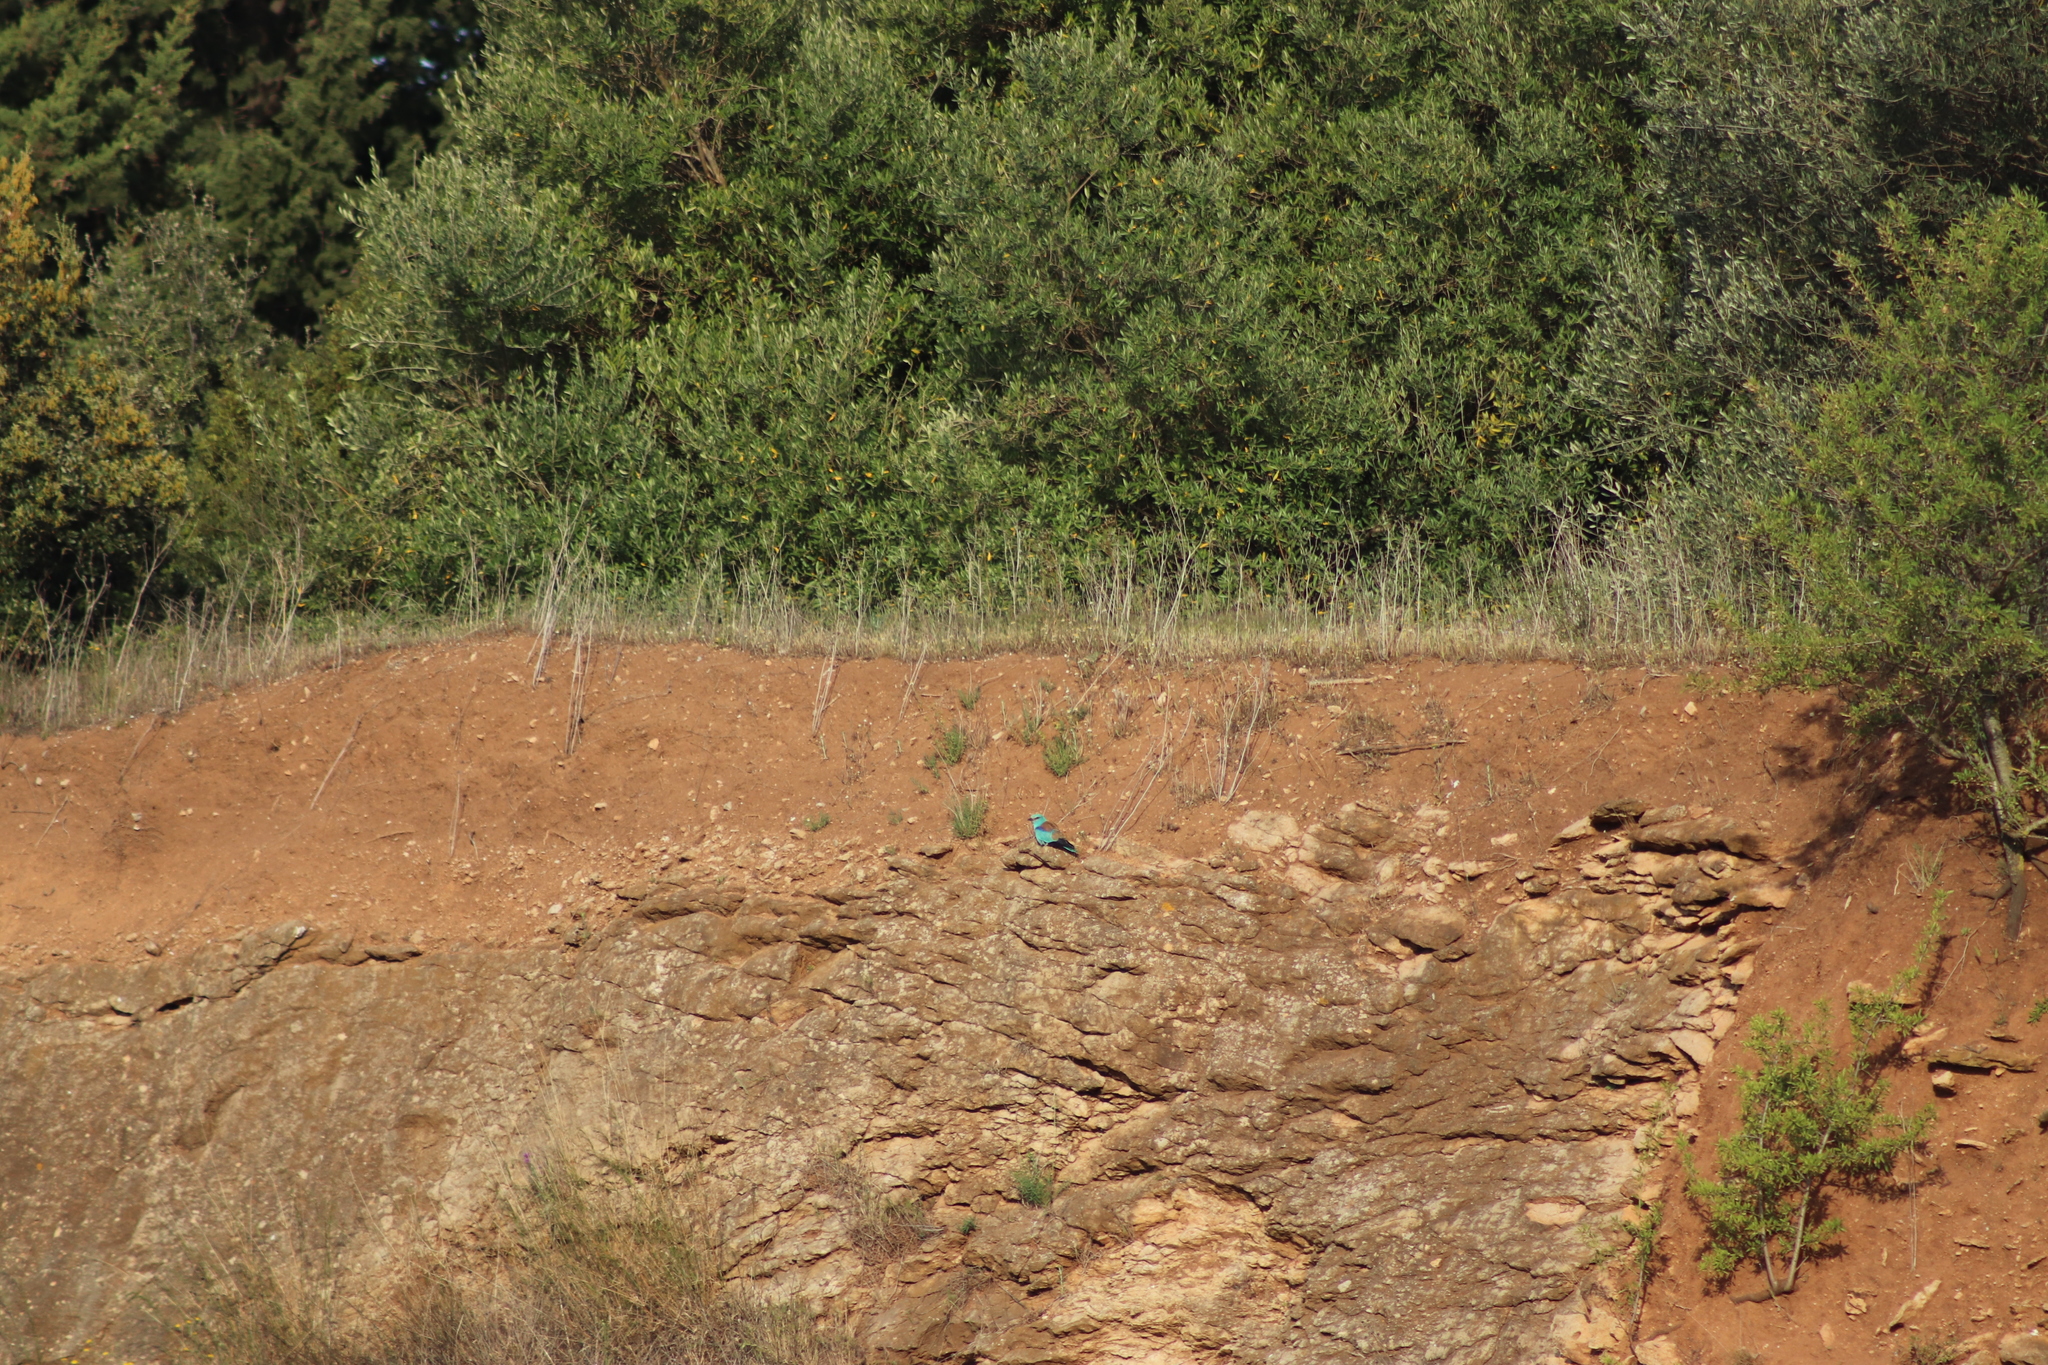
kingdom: Animalia
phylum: Chordata
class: Aves
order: Coraciiformes
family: Coraciidae
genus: Coracias
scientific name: Coracias garrulus
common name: European roller
